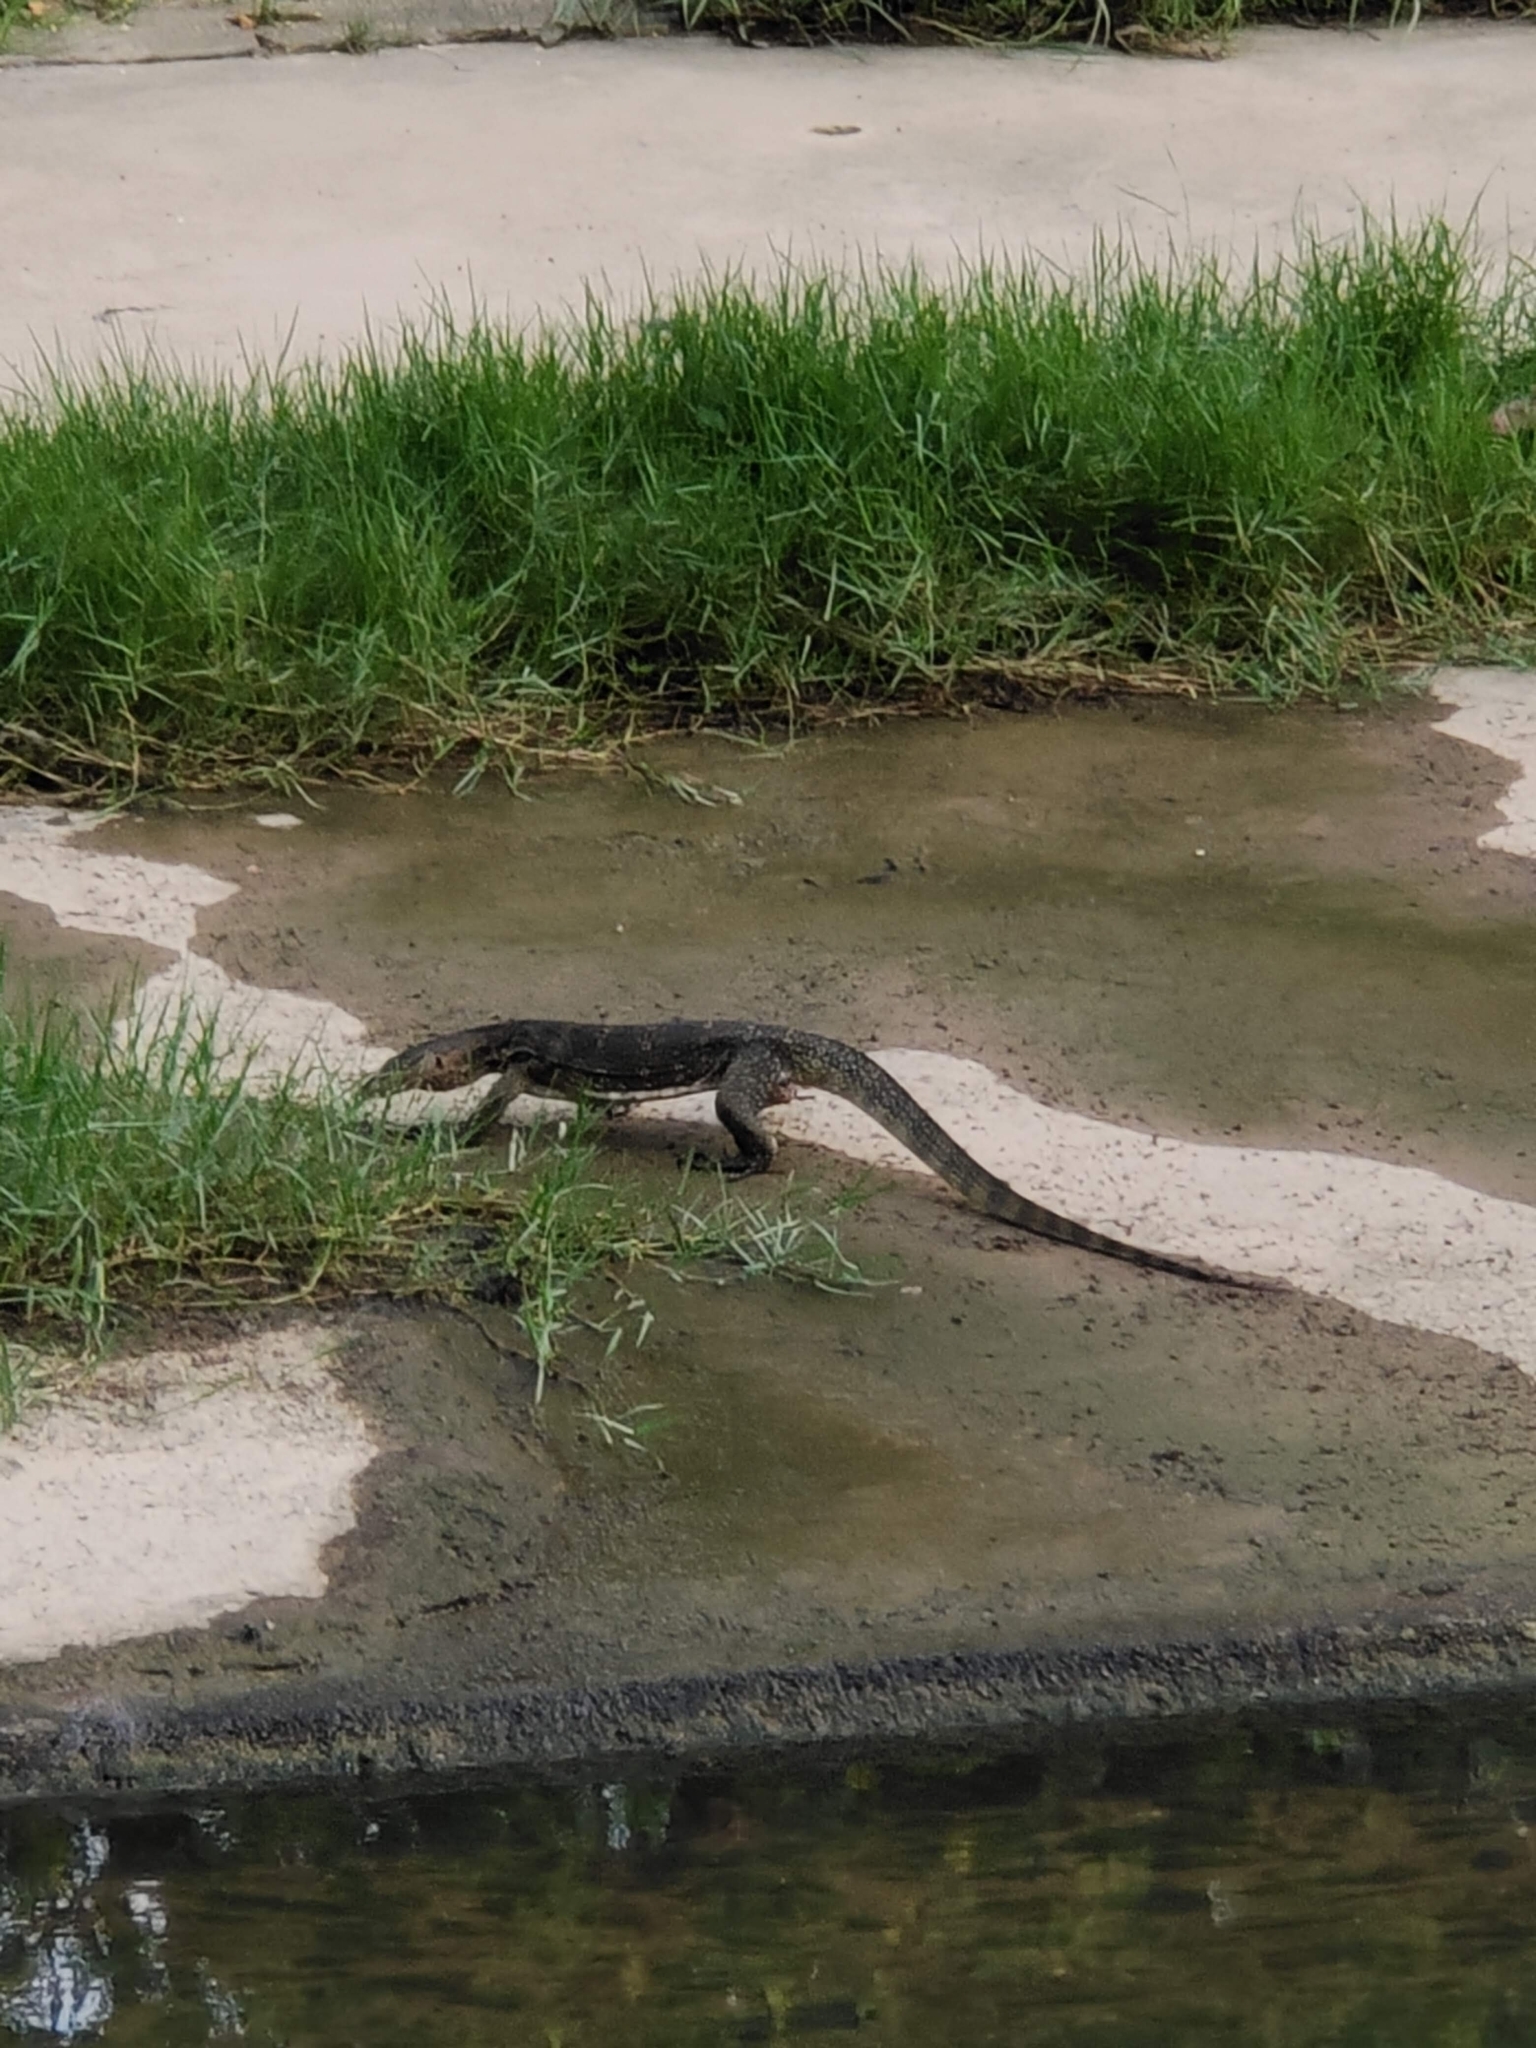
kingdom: Animalia
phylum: Chordata
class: Squamata
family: Varanidae
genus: Varanus
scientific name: Varanus salvator
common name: Common water monitor
